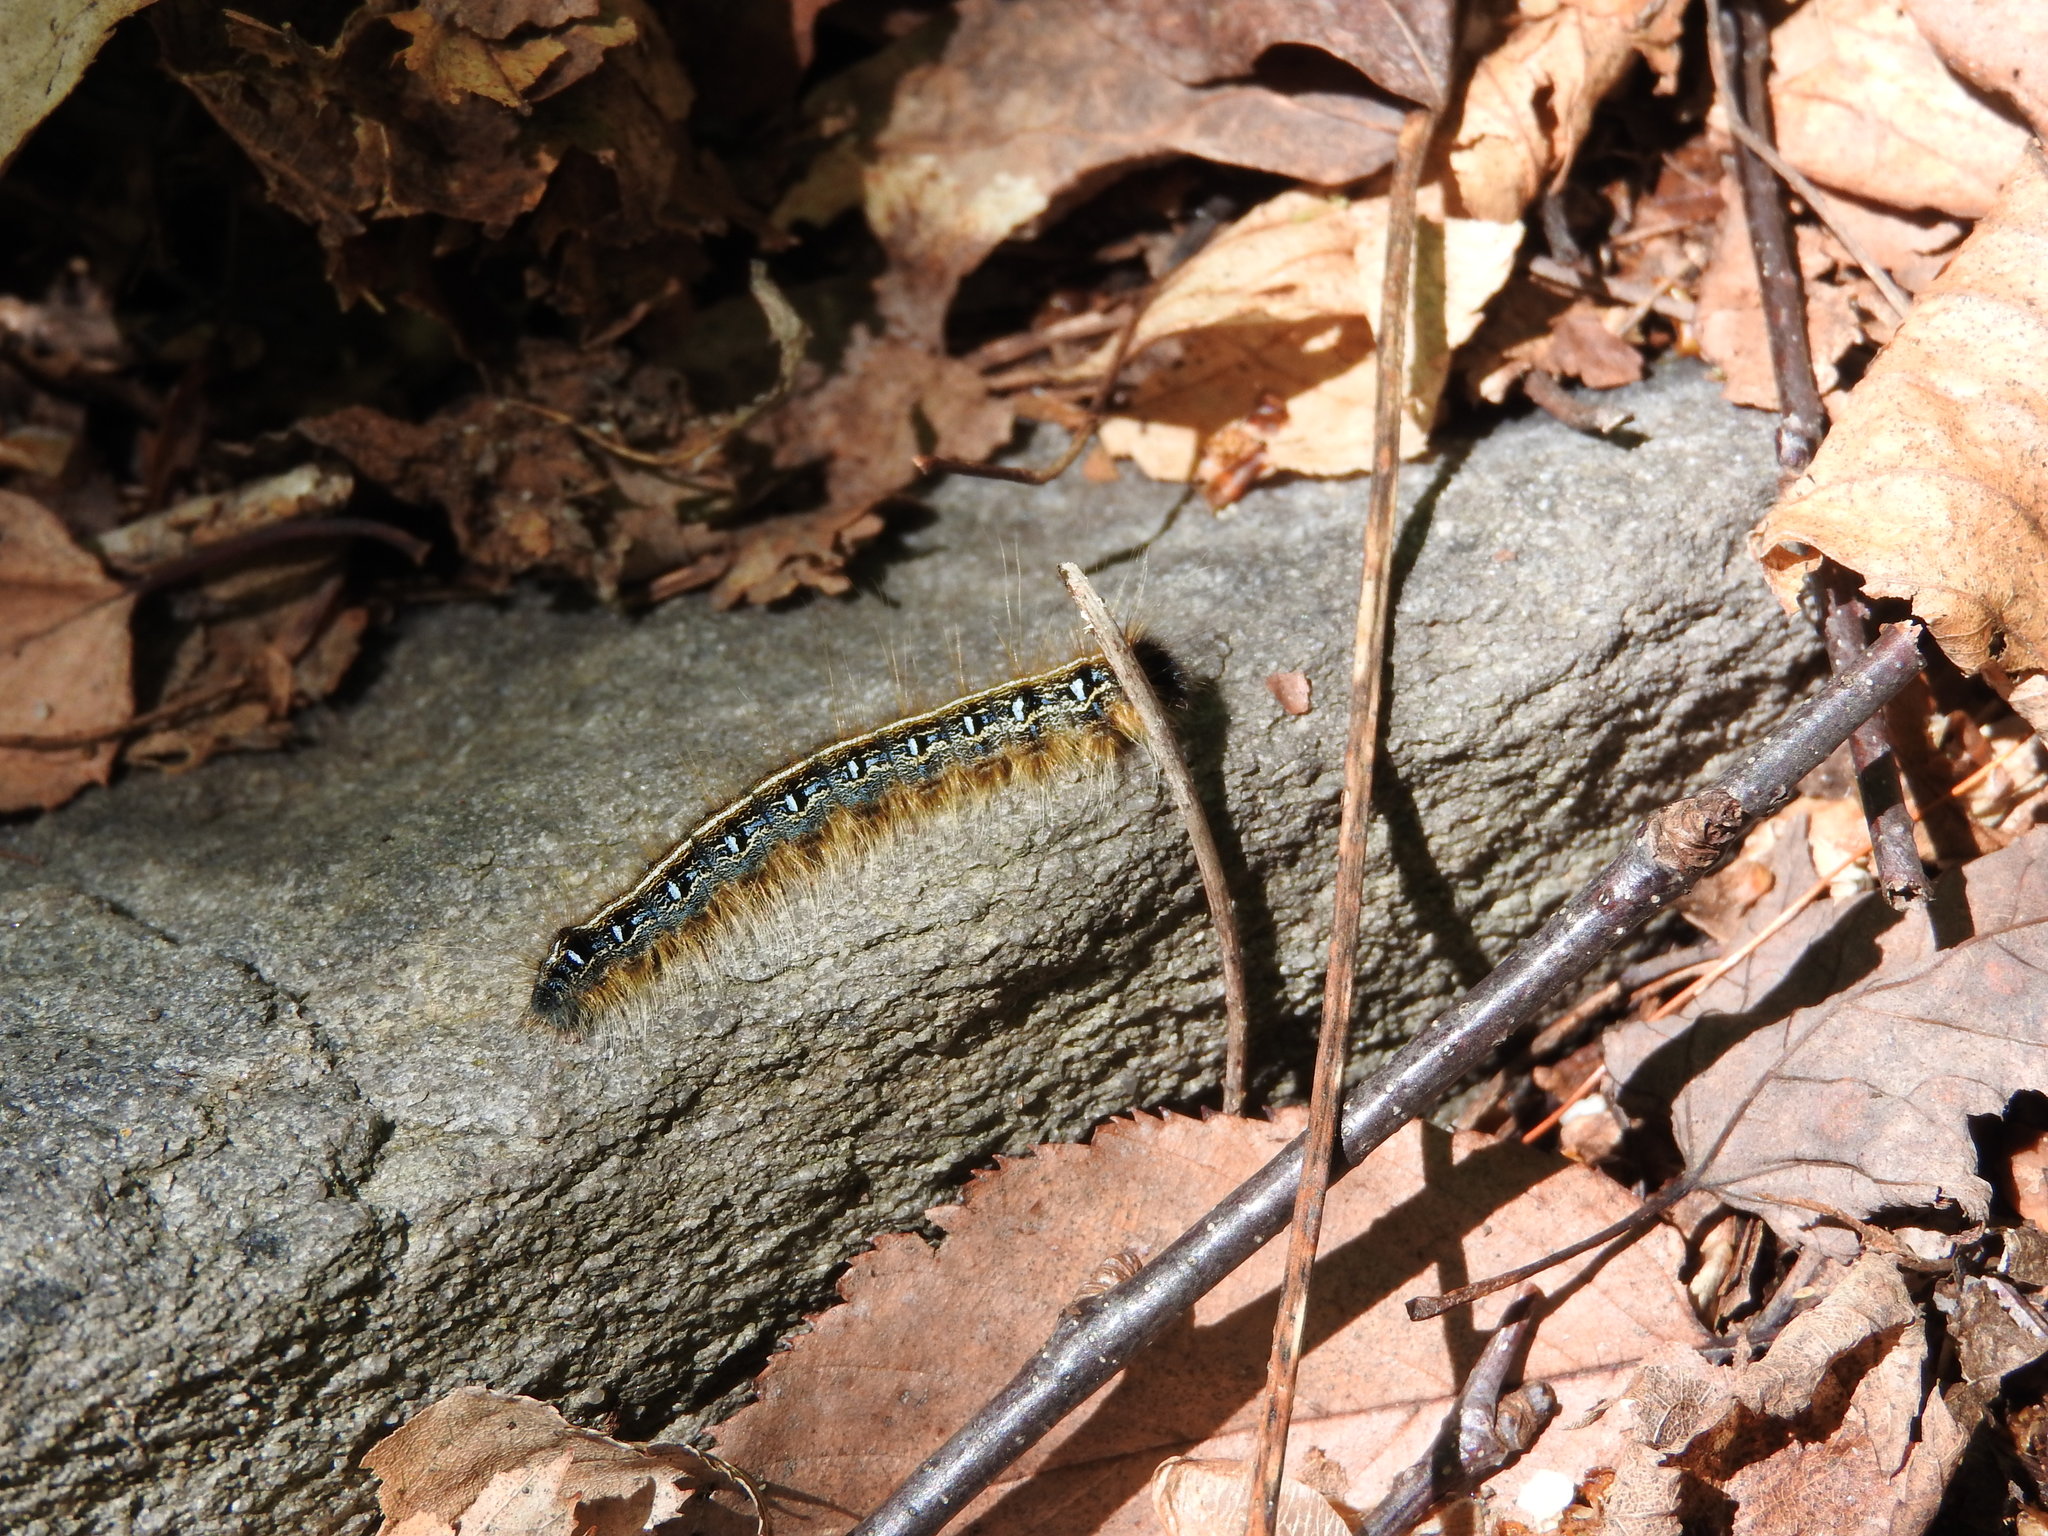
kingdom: Animalia
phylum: Arthropoda
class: Insecta
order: Lepidoptera
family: Lasiocampidae
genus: Malacosoma
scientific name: Malacosoma americana
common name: Eastern tent caterpillar moth
